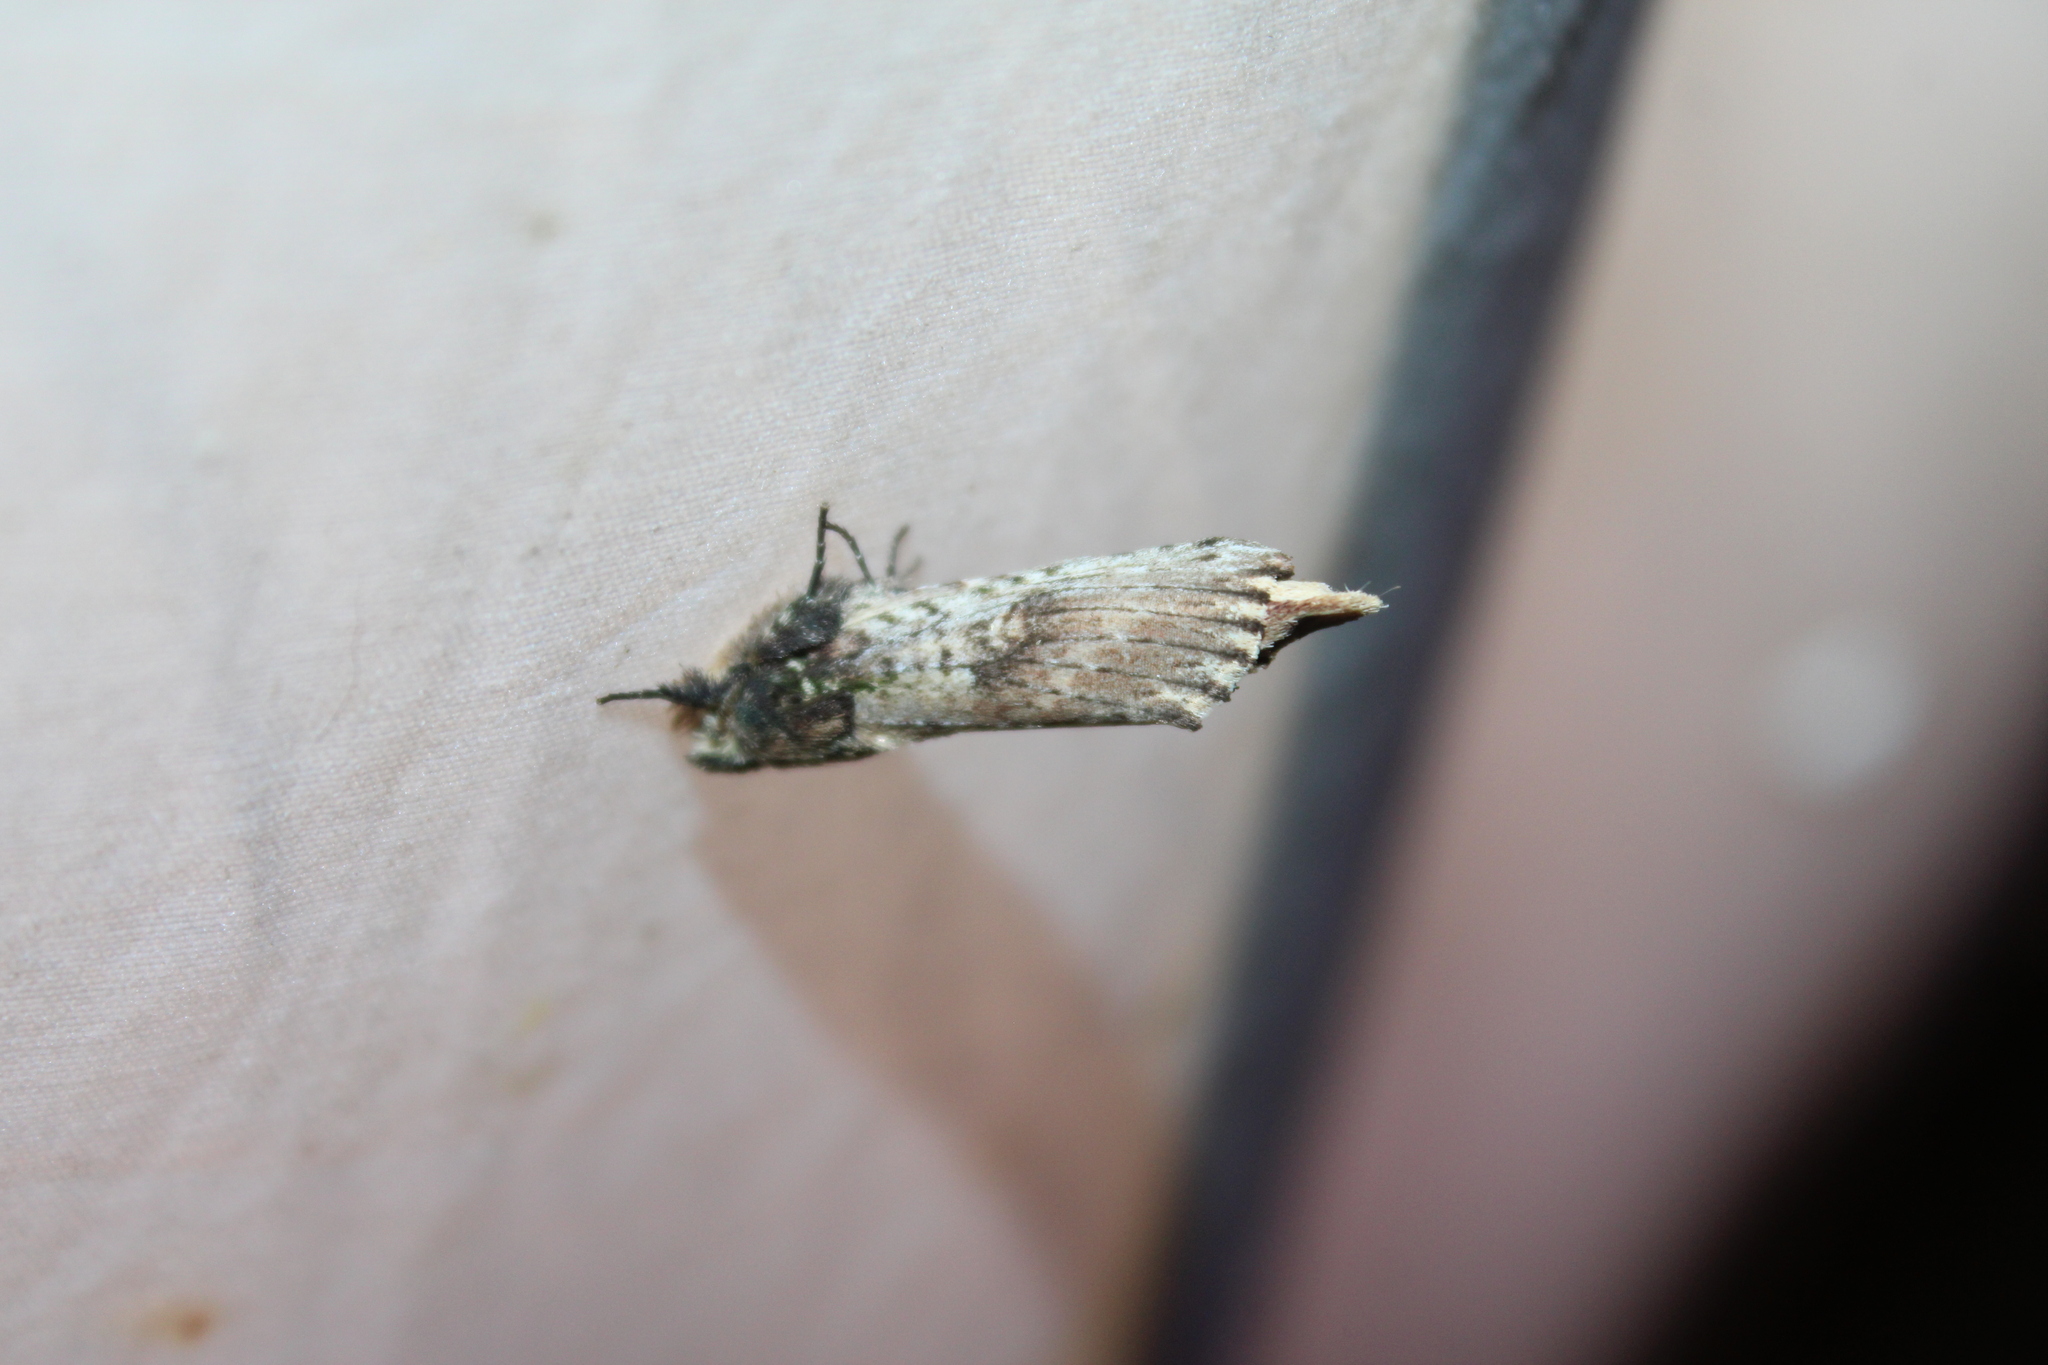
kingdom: Animalia
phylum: Arthropoda
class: Insecta
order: Lepidoptera
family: Notodontidae
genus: Schizura
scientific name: Schizura ipomaeae
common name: Morning-glory prominent
